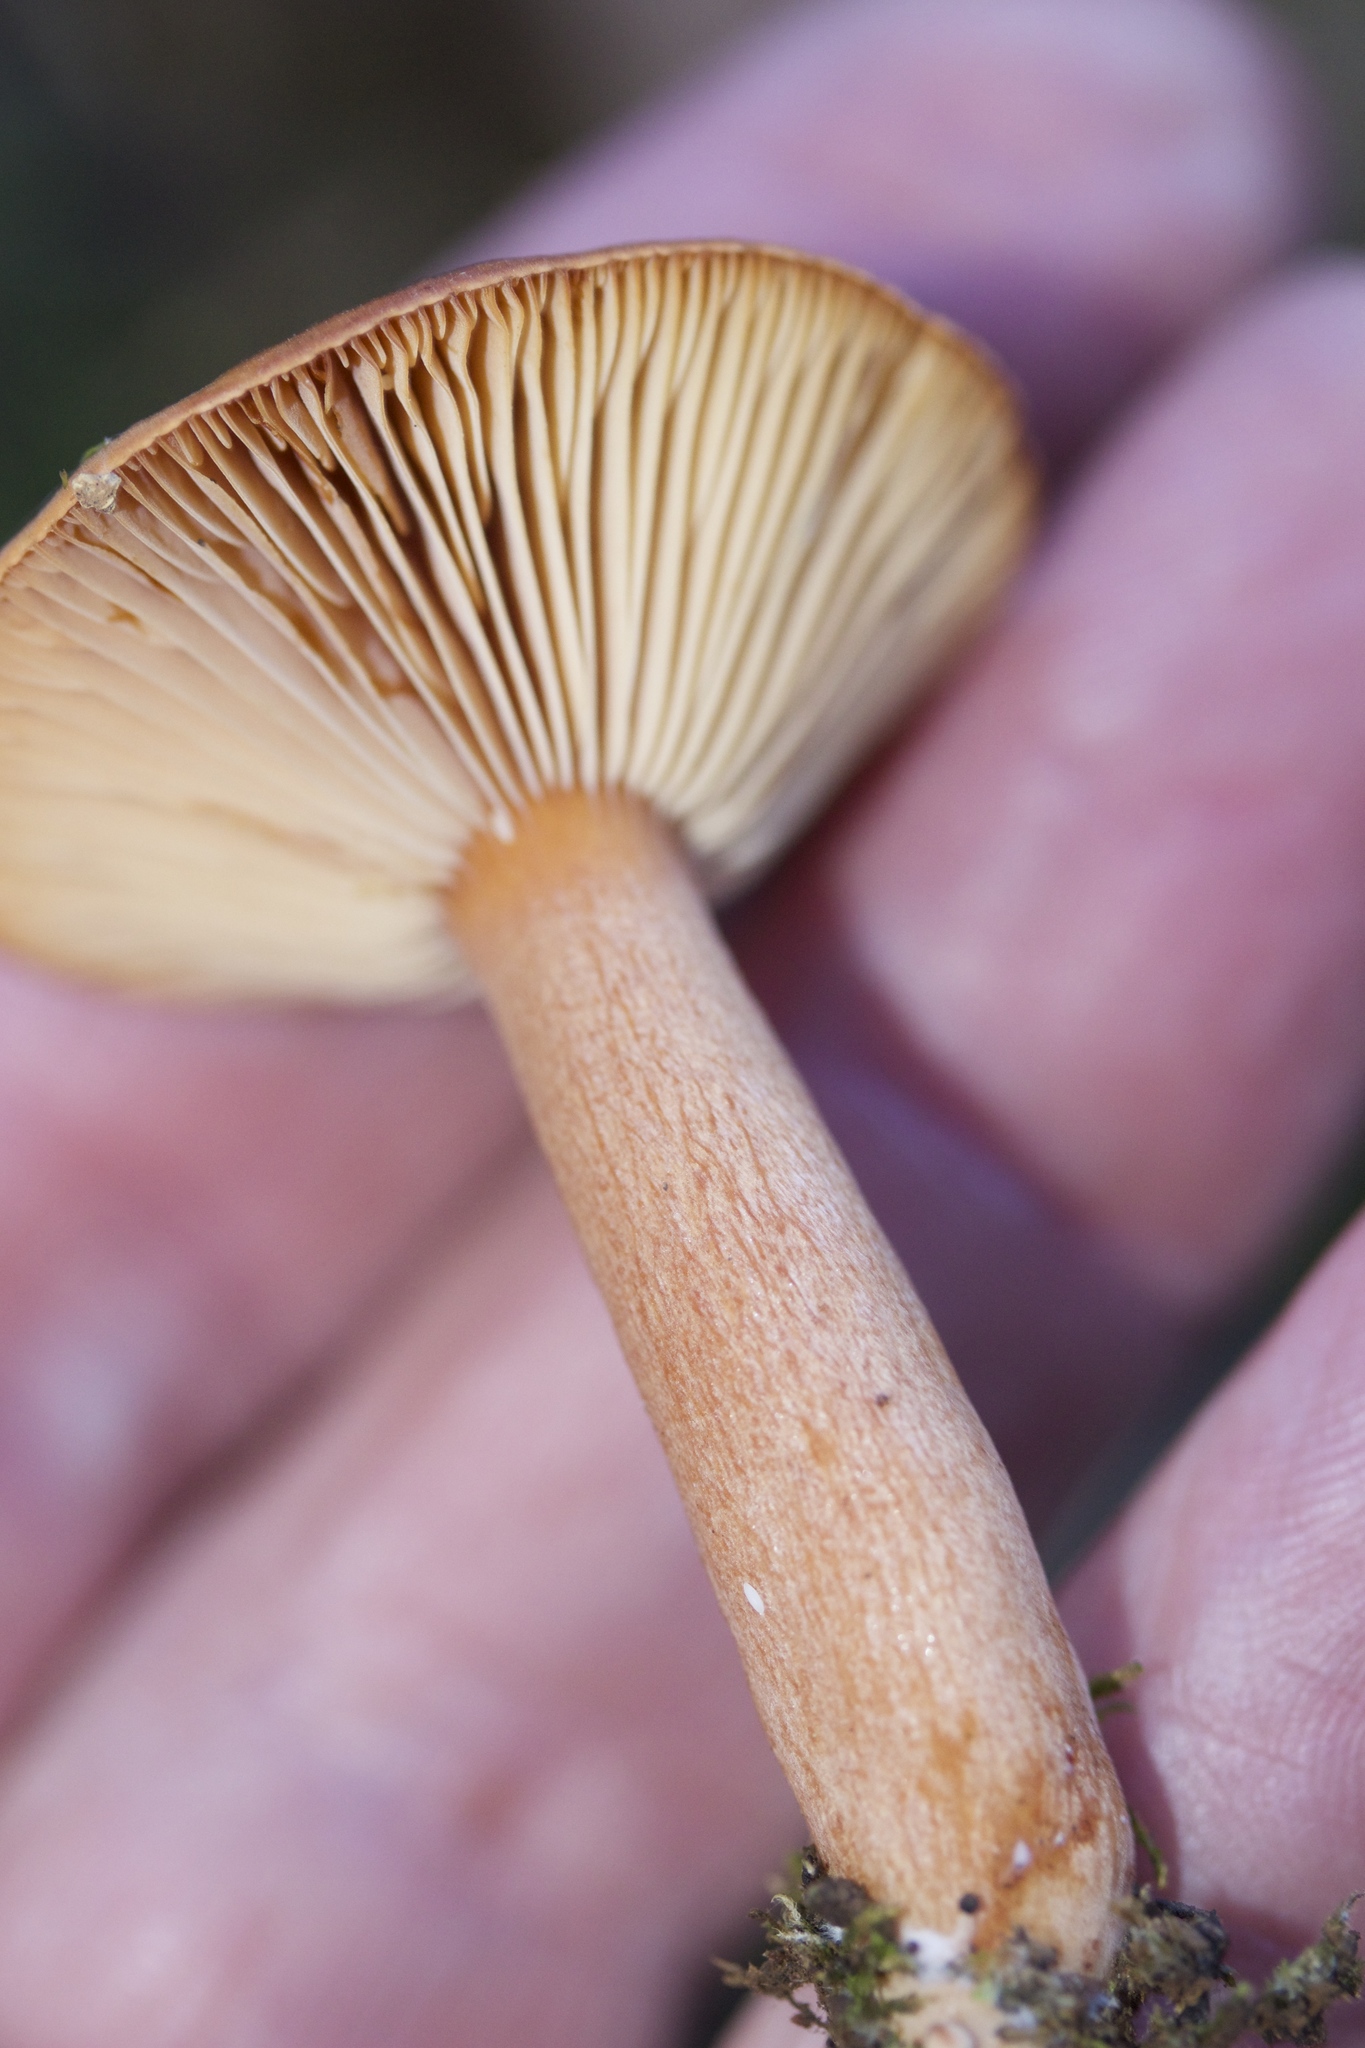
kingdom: Fungi
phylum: Basidiomycota
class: Agaricomycetes
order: Russulales
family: Russulaceae
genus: Lactarius
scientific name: Lactarius rufulus
